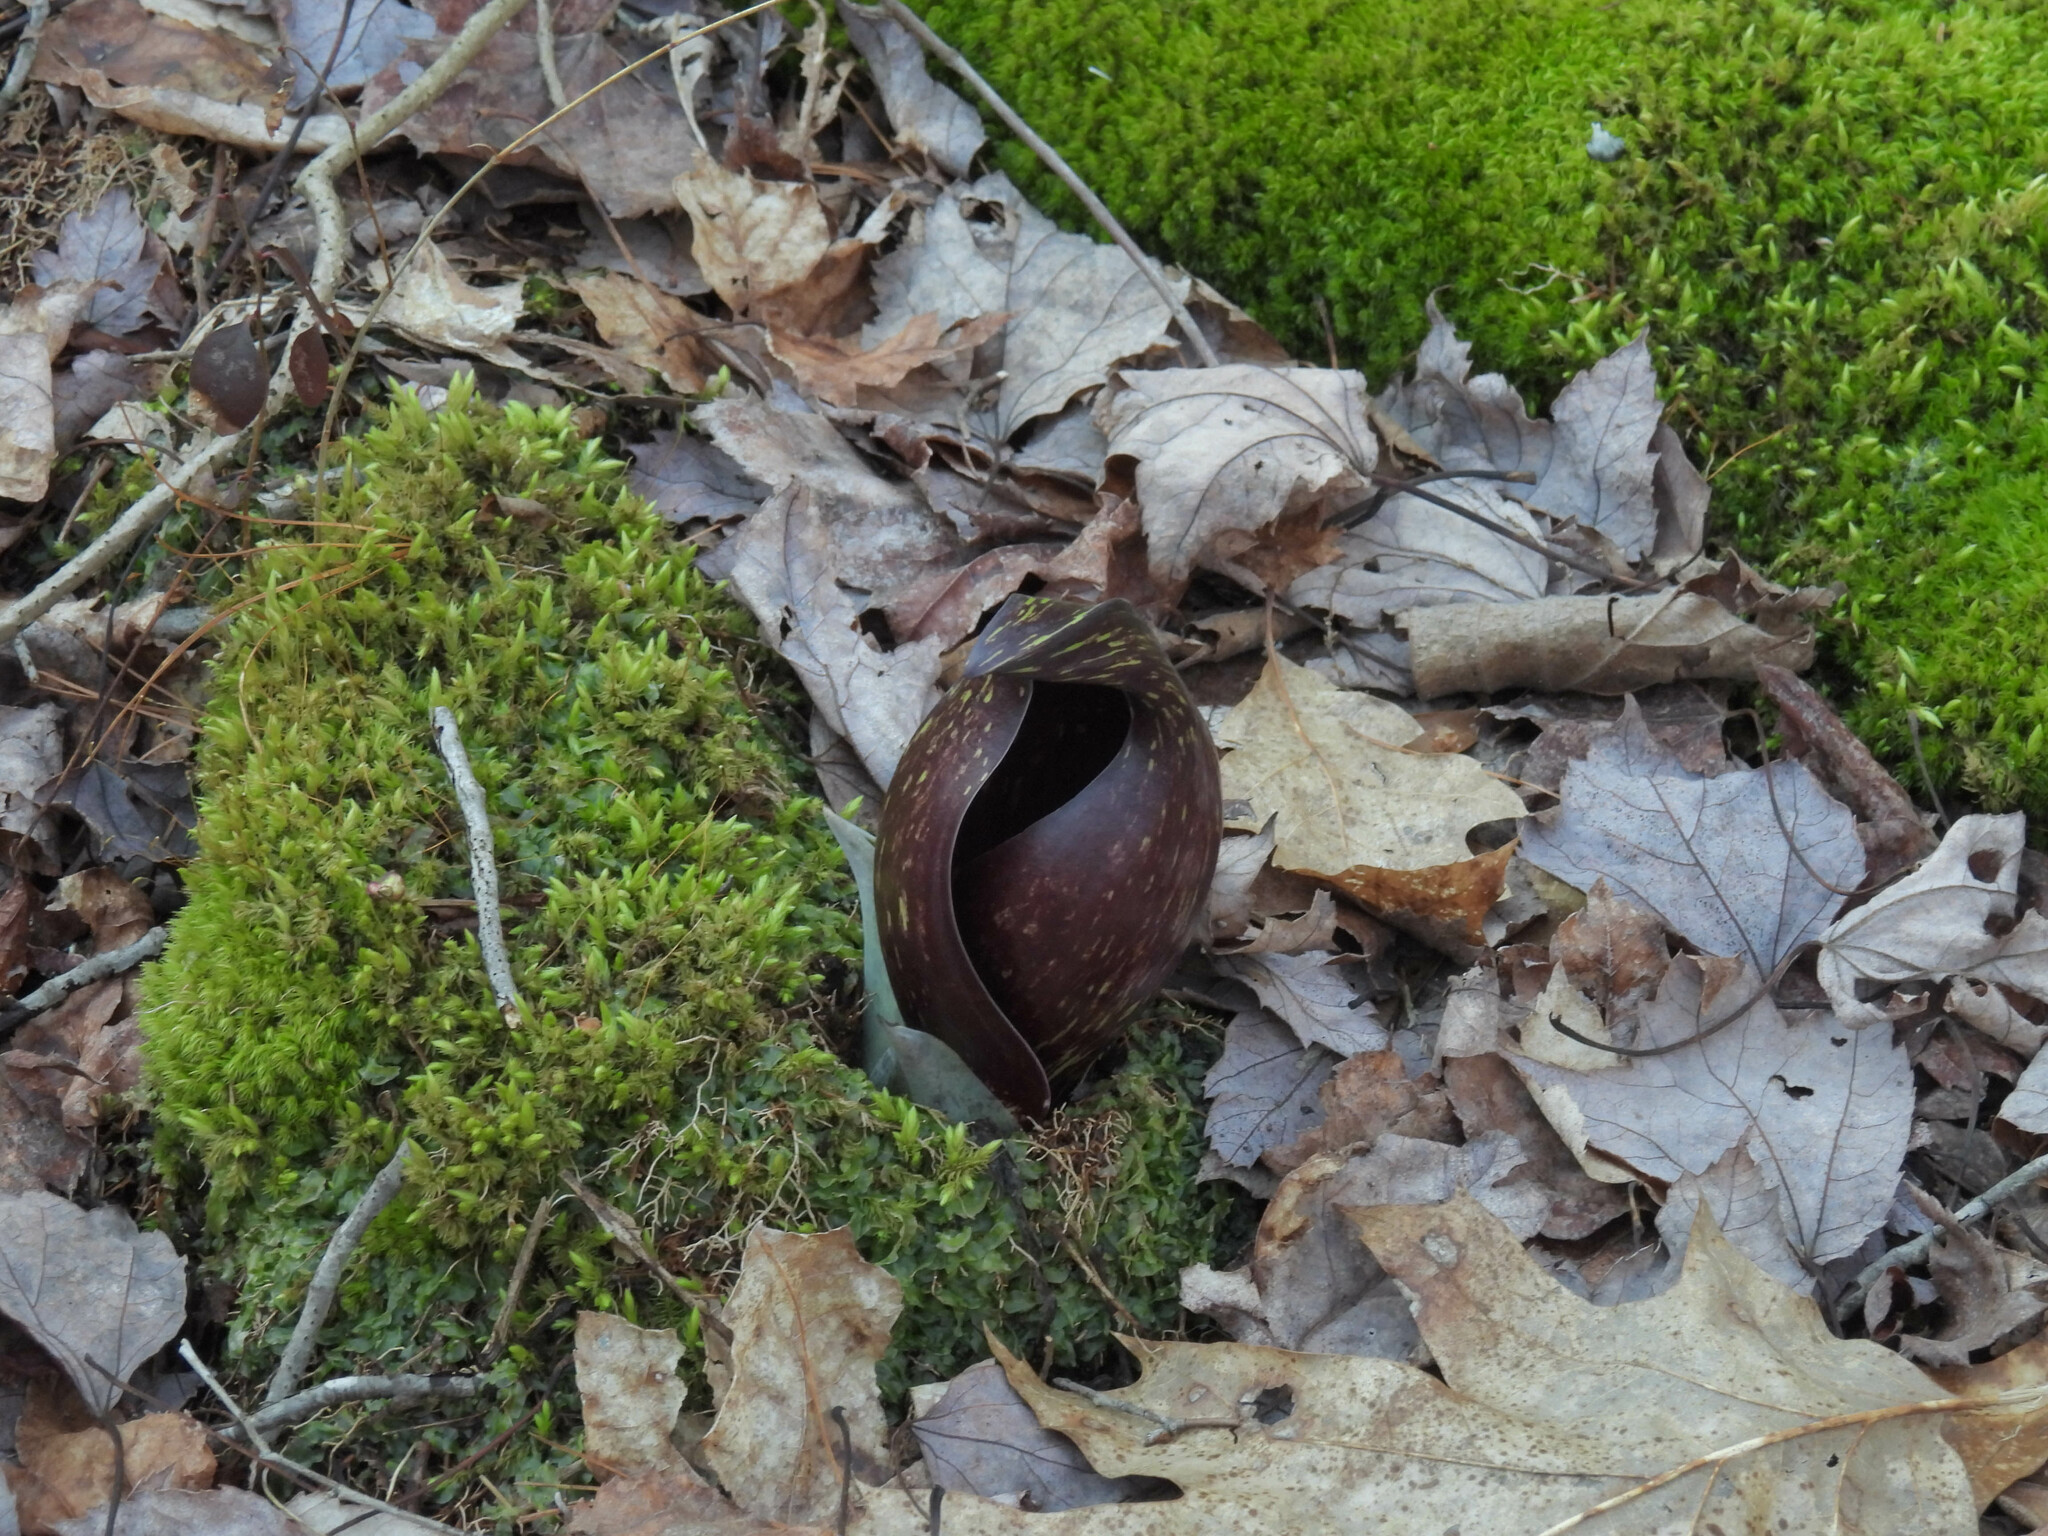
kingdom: Plantae
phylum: Tracheophyta
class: Liliopsida
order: Alismatales
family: Araceae
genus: Symplocarpus
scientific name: Symplocarpus foetidus
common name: Eastern skunk cabbage
